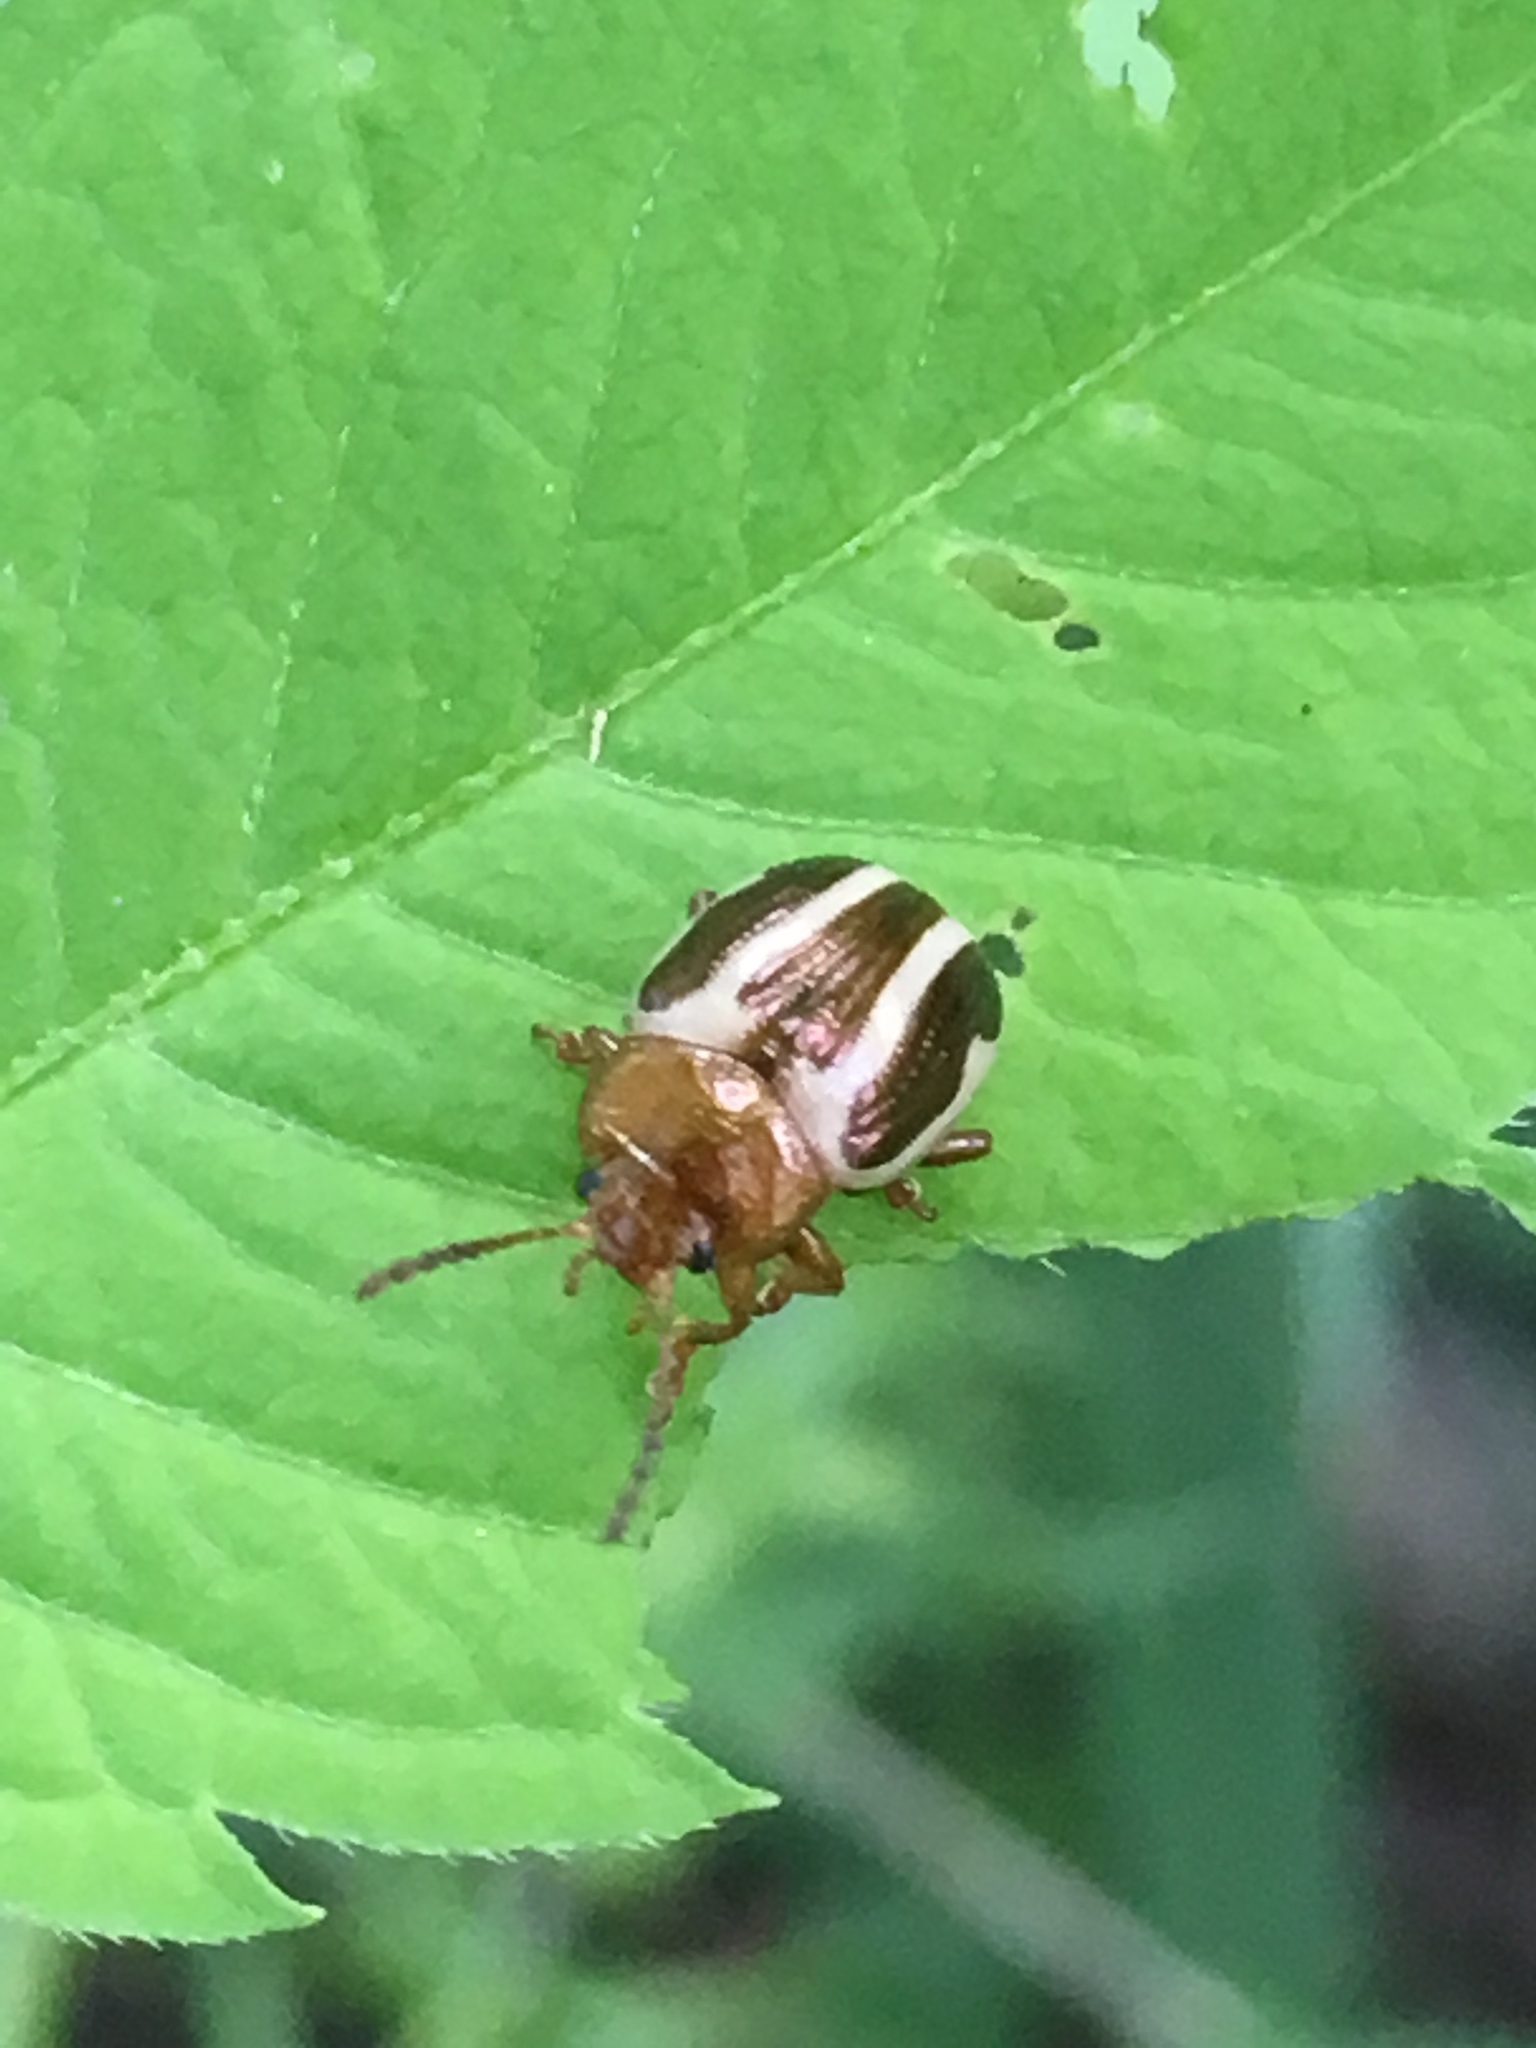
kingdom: Animalia
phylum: Arthropoda
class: Insecta
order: Coleoptera
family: Chrysomelidae
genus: Calligrapha
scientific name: Calligrapha bidenticola
